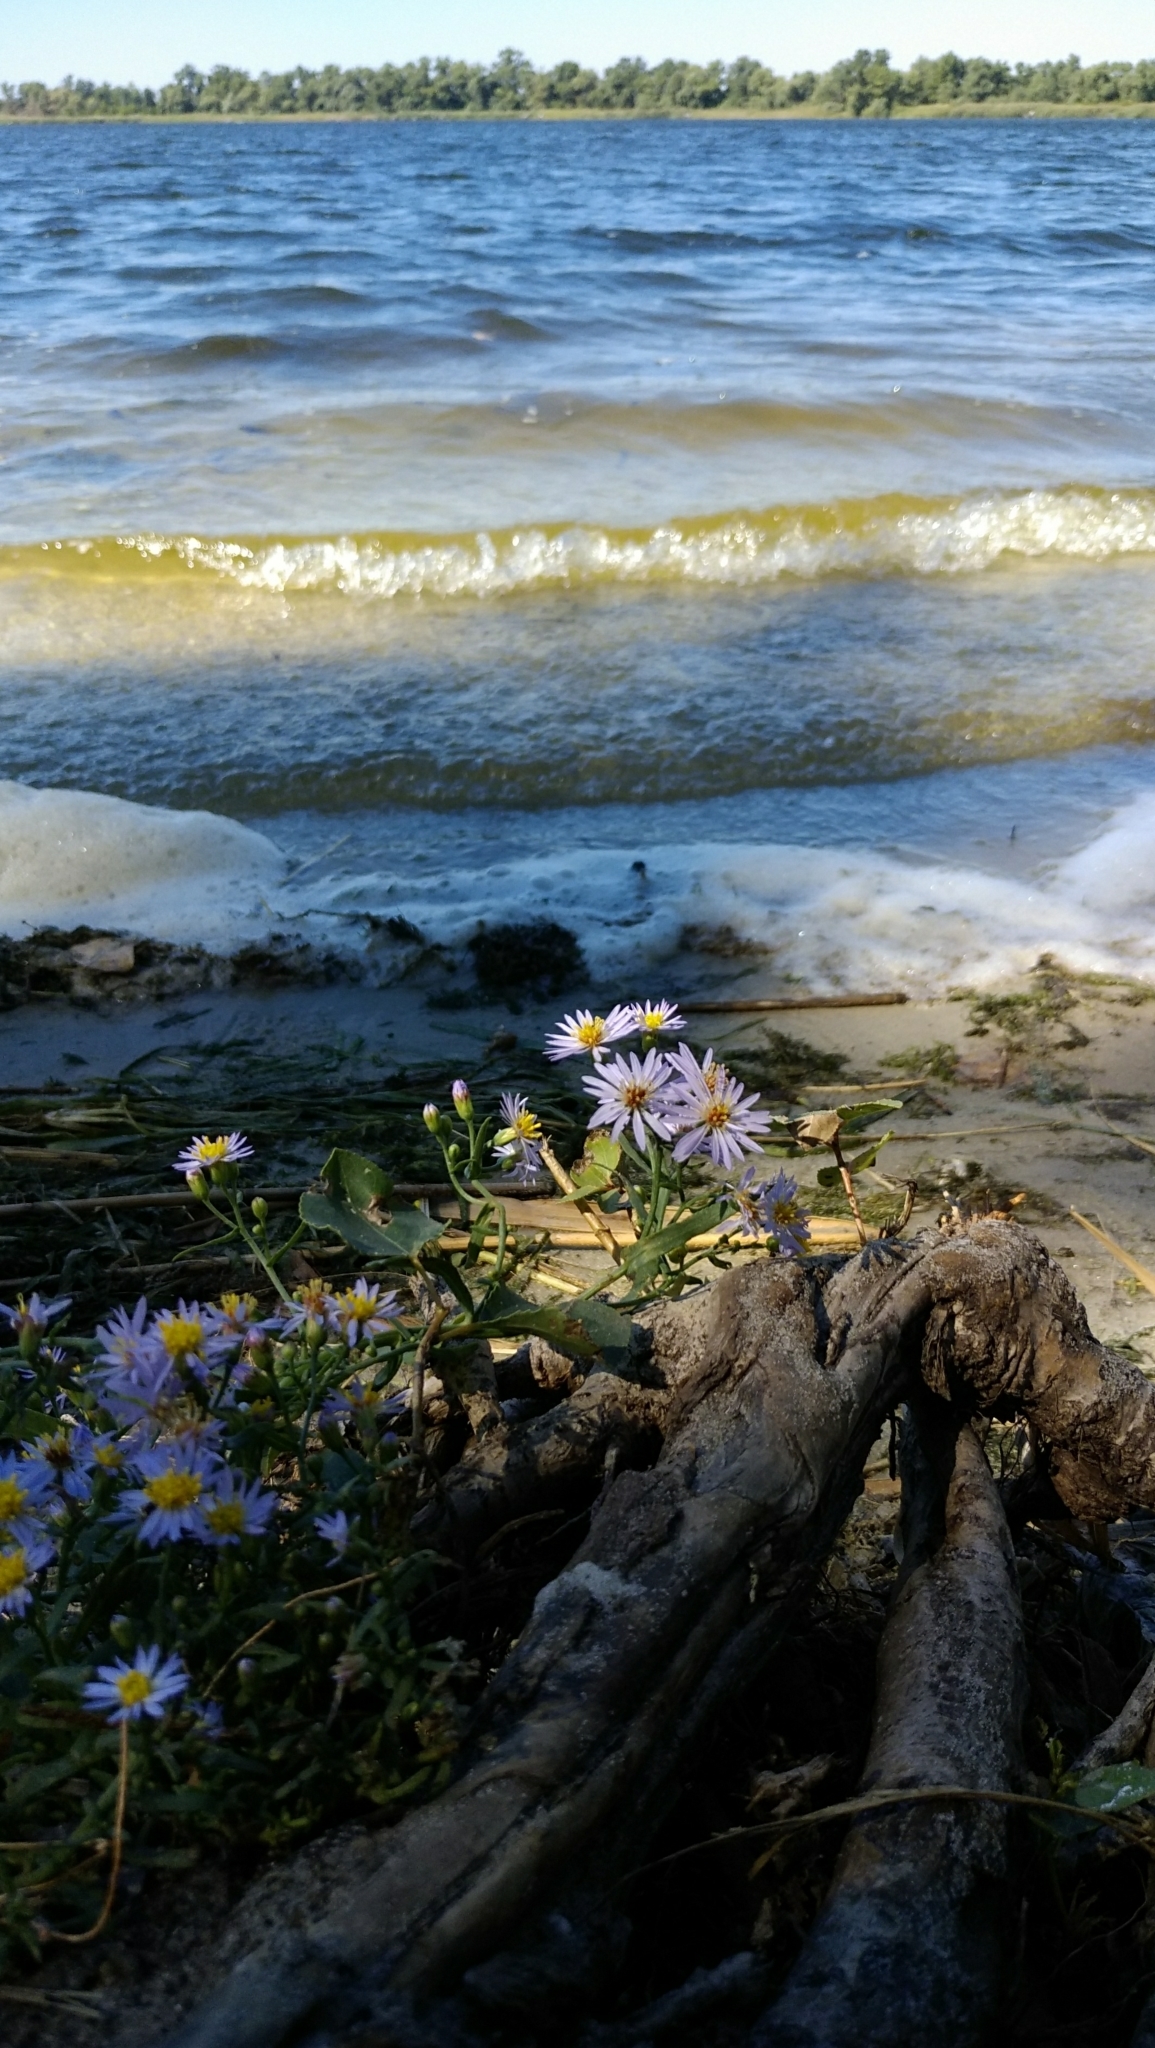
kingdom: Plantae
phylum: Tracheophyta
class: Magnoliopsida
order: Asterales
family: Asteraceae
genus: Tripolium
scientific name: Tripolium pannonicum
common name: Sea aster
